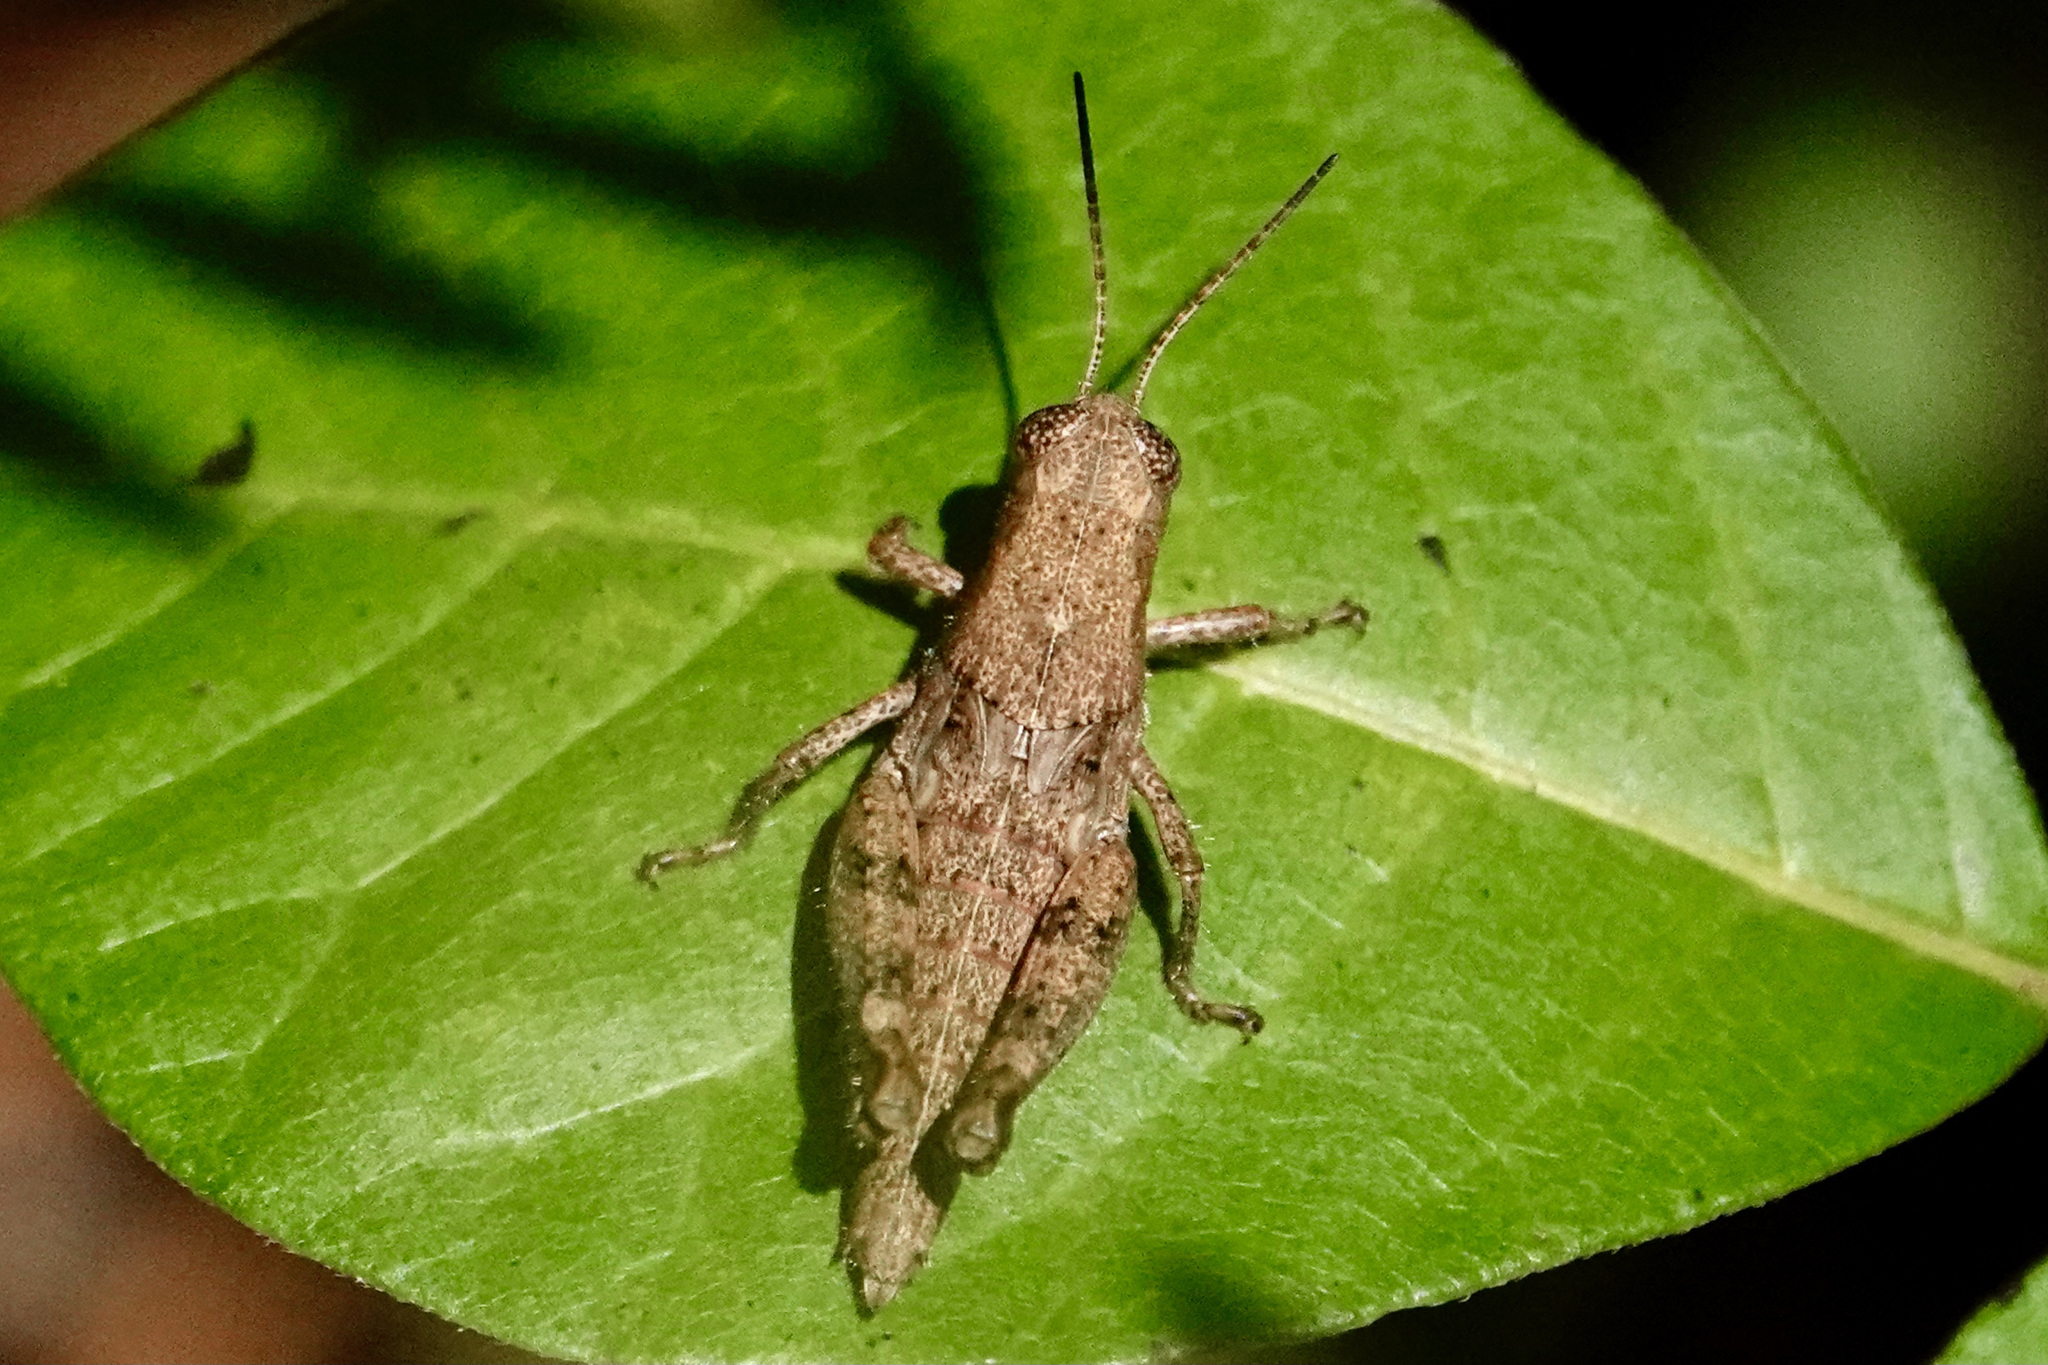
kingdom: Animalia
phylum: Arthropoda
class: Insecta
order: Orthoptera
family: Acrididae
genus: Melanoplus
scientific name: Melanoplus scudderi
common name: Scudder's short-winged locust
